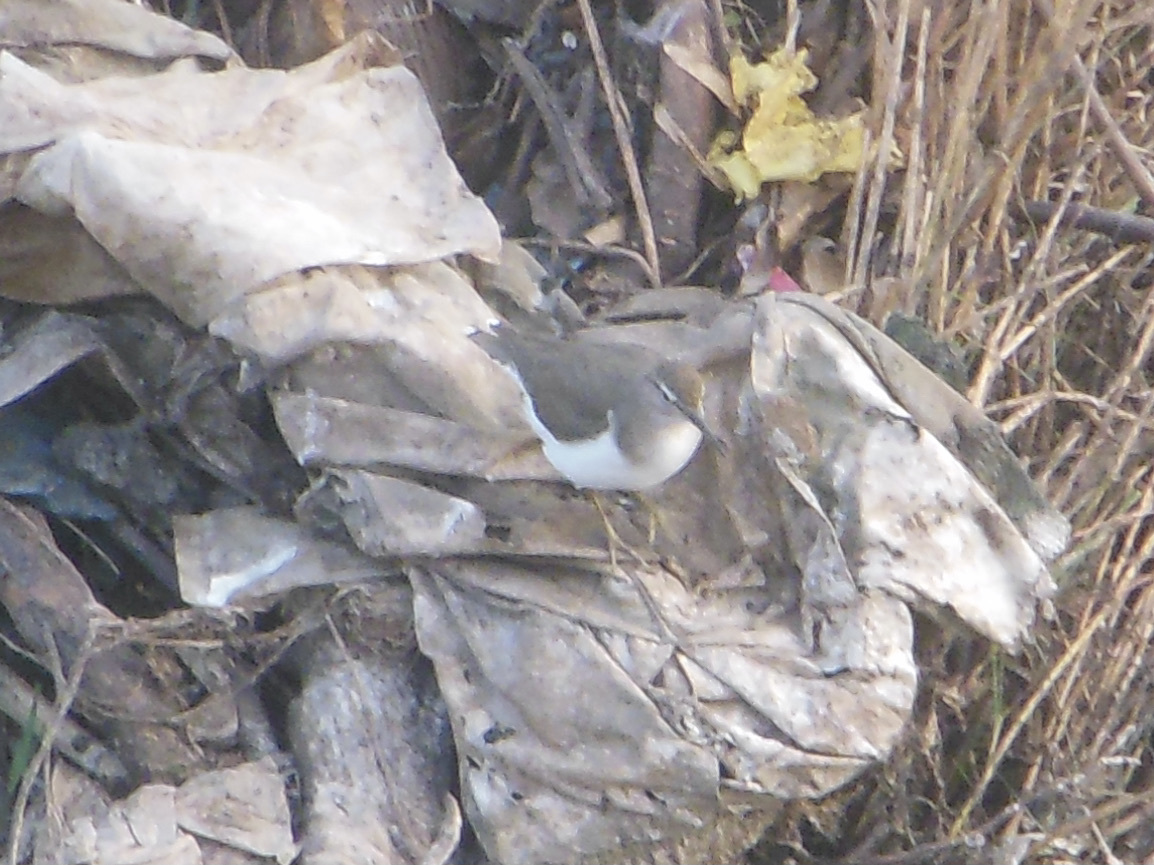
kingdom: Animalia
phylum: Chordata
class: Aves
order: Charadriiformes
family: Scolopacidae
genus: Actitis
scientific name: Actitis hypoleucos
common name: Common sandpiper
